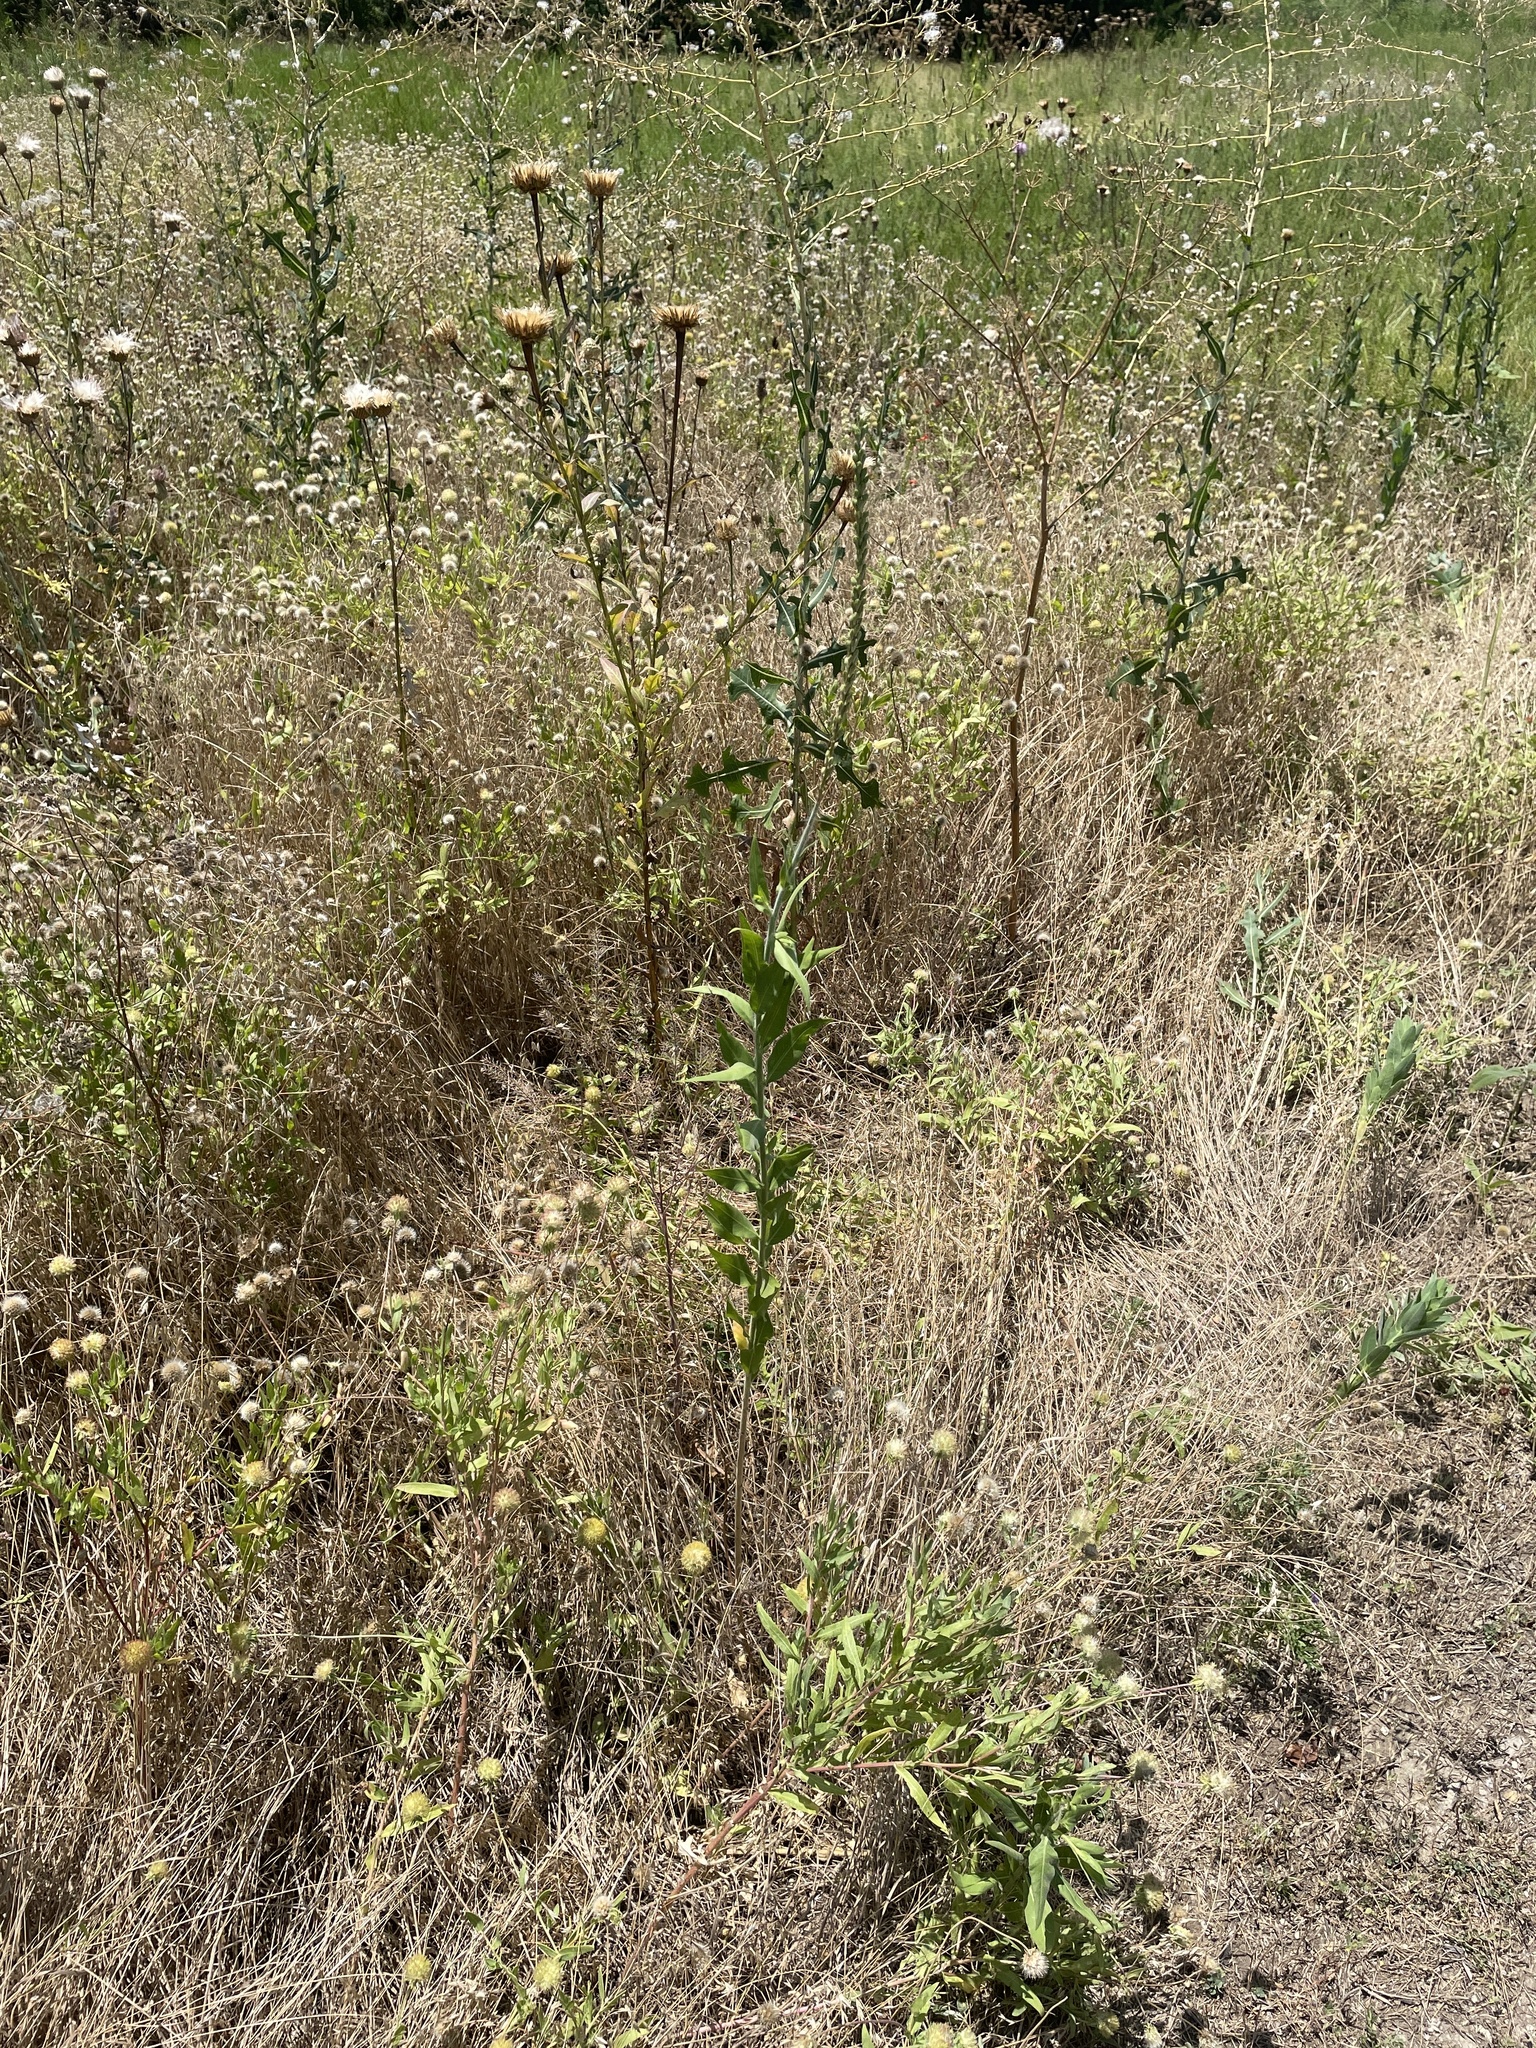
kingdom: Plantae
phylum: Tracheophyta
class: Magnoliopsida
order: Myrtales
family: Onagraceae
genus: Oenothera
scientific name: Oenothera curtiflora
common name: Velvetweed
